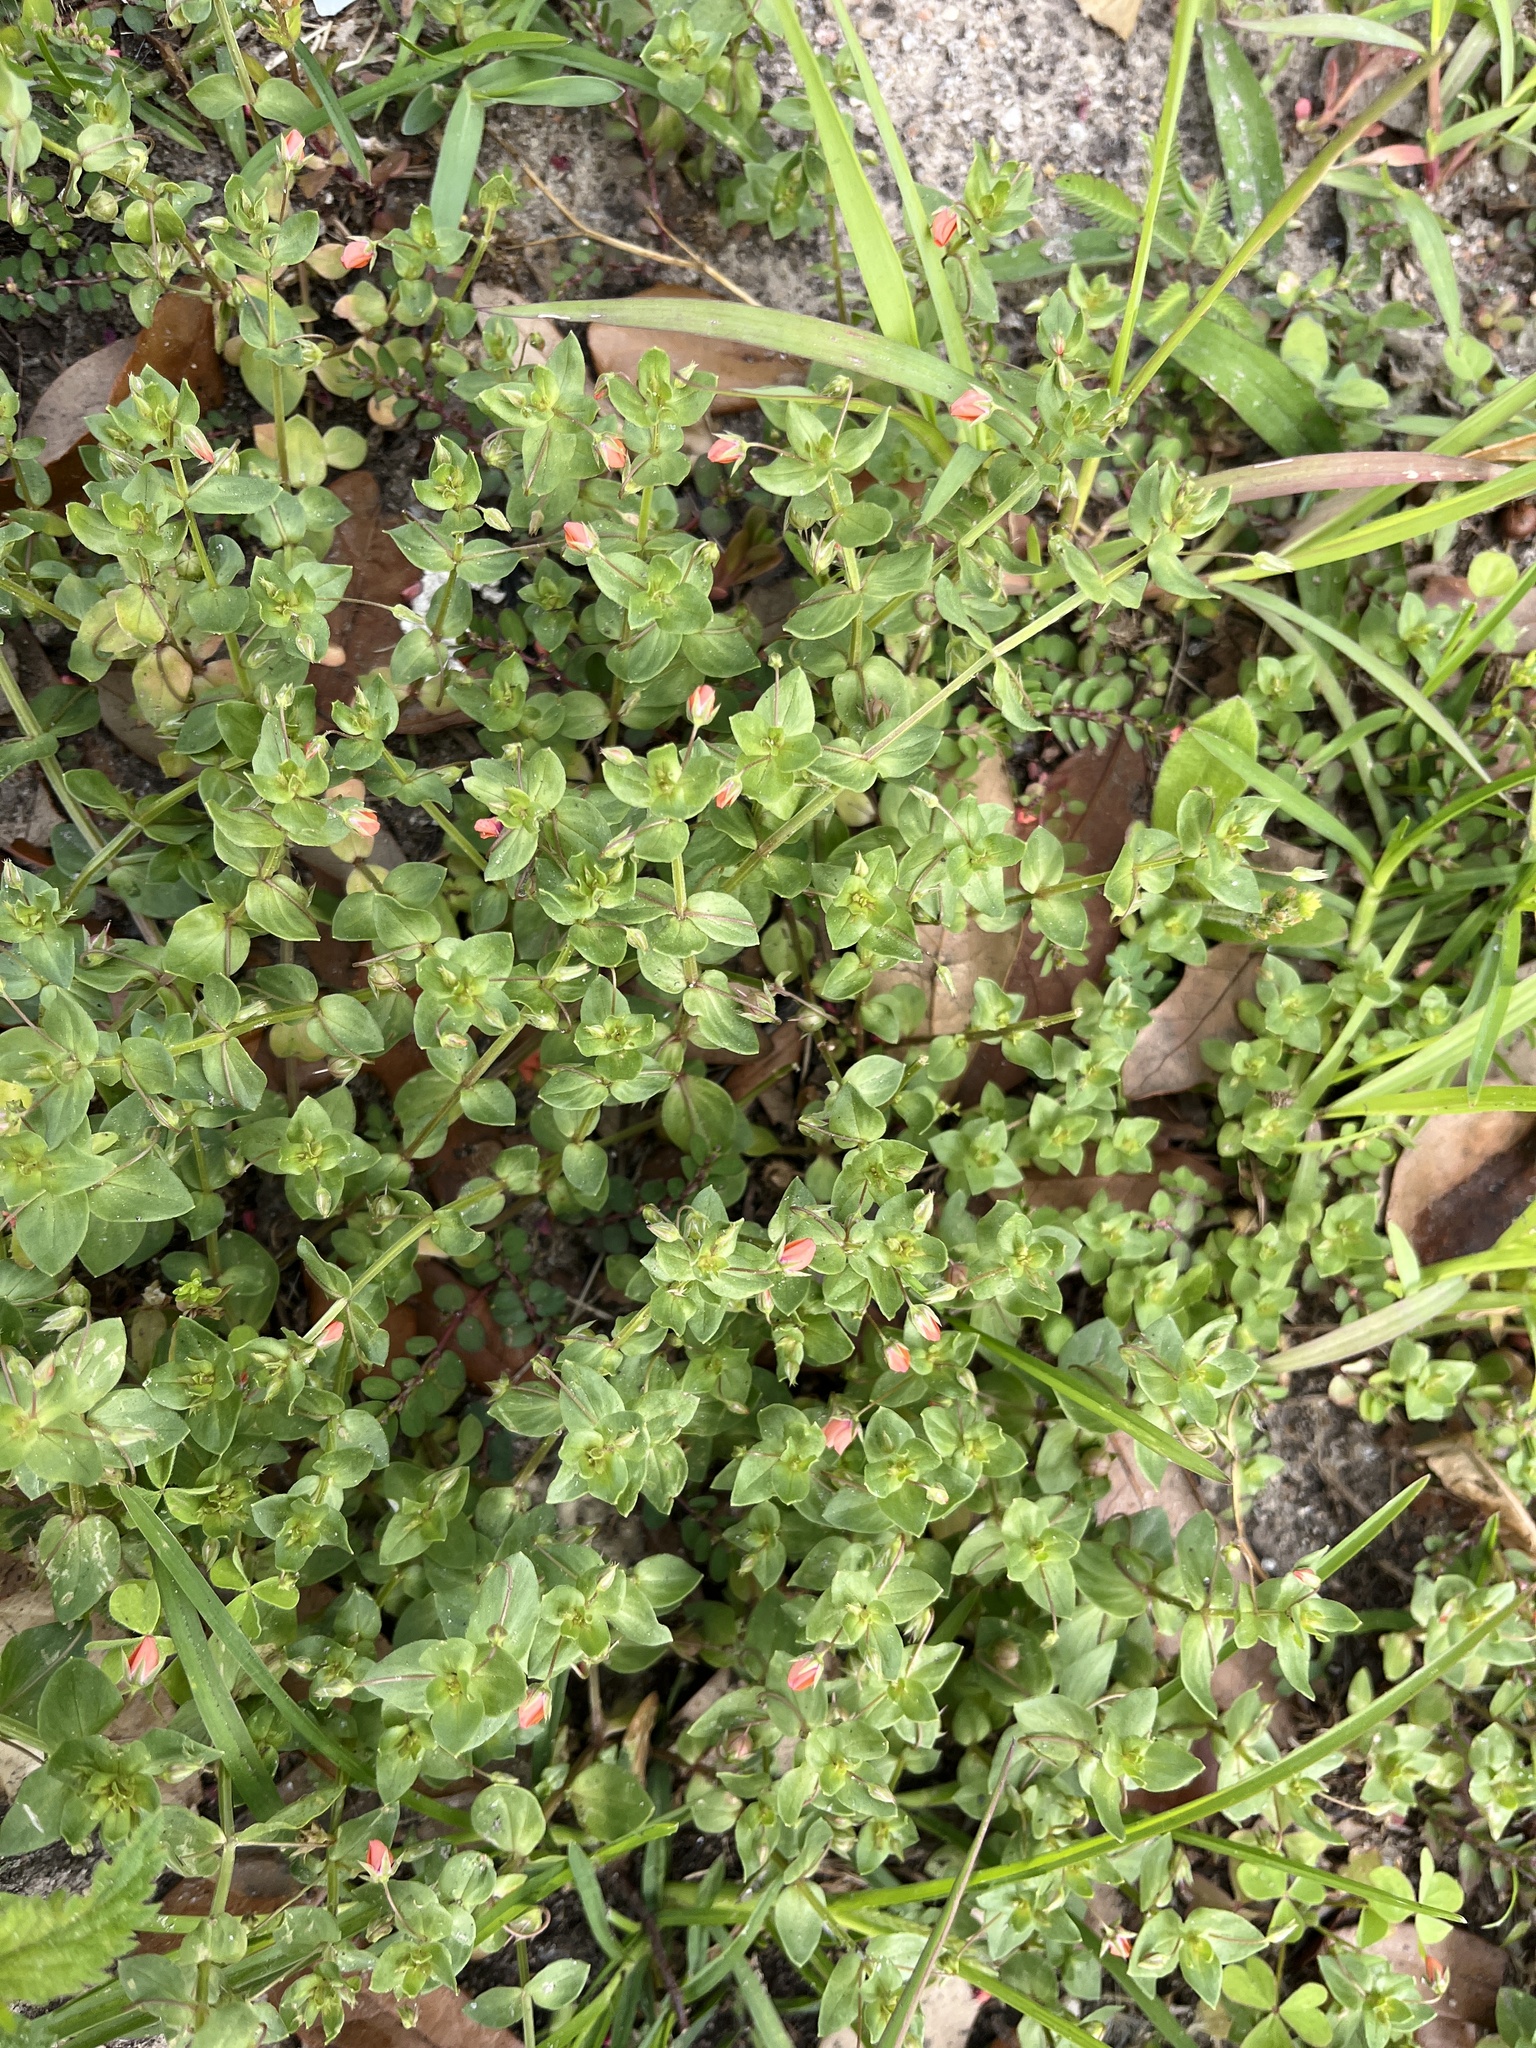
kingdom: Plantae
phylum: Tracheophyta
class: Magnoliopsida
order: Ericales
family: Primulaceae
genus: Lysimachia
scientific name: Lysimachia arvensis
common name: Scarlet pimpernel
